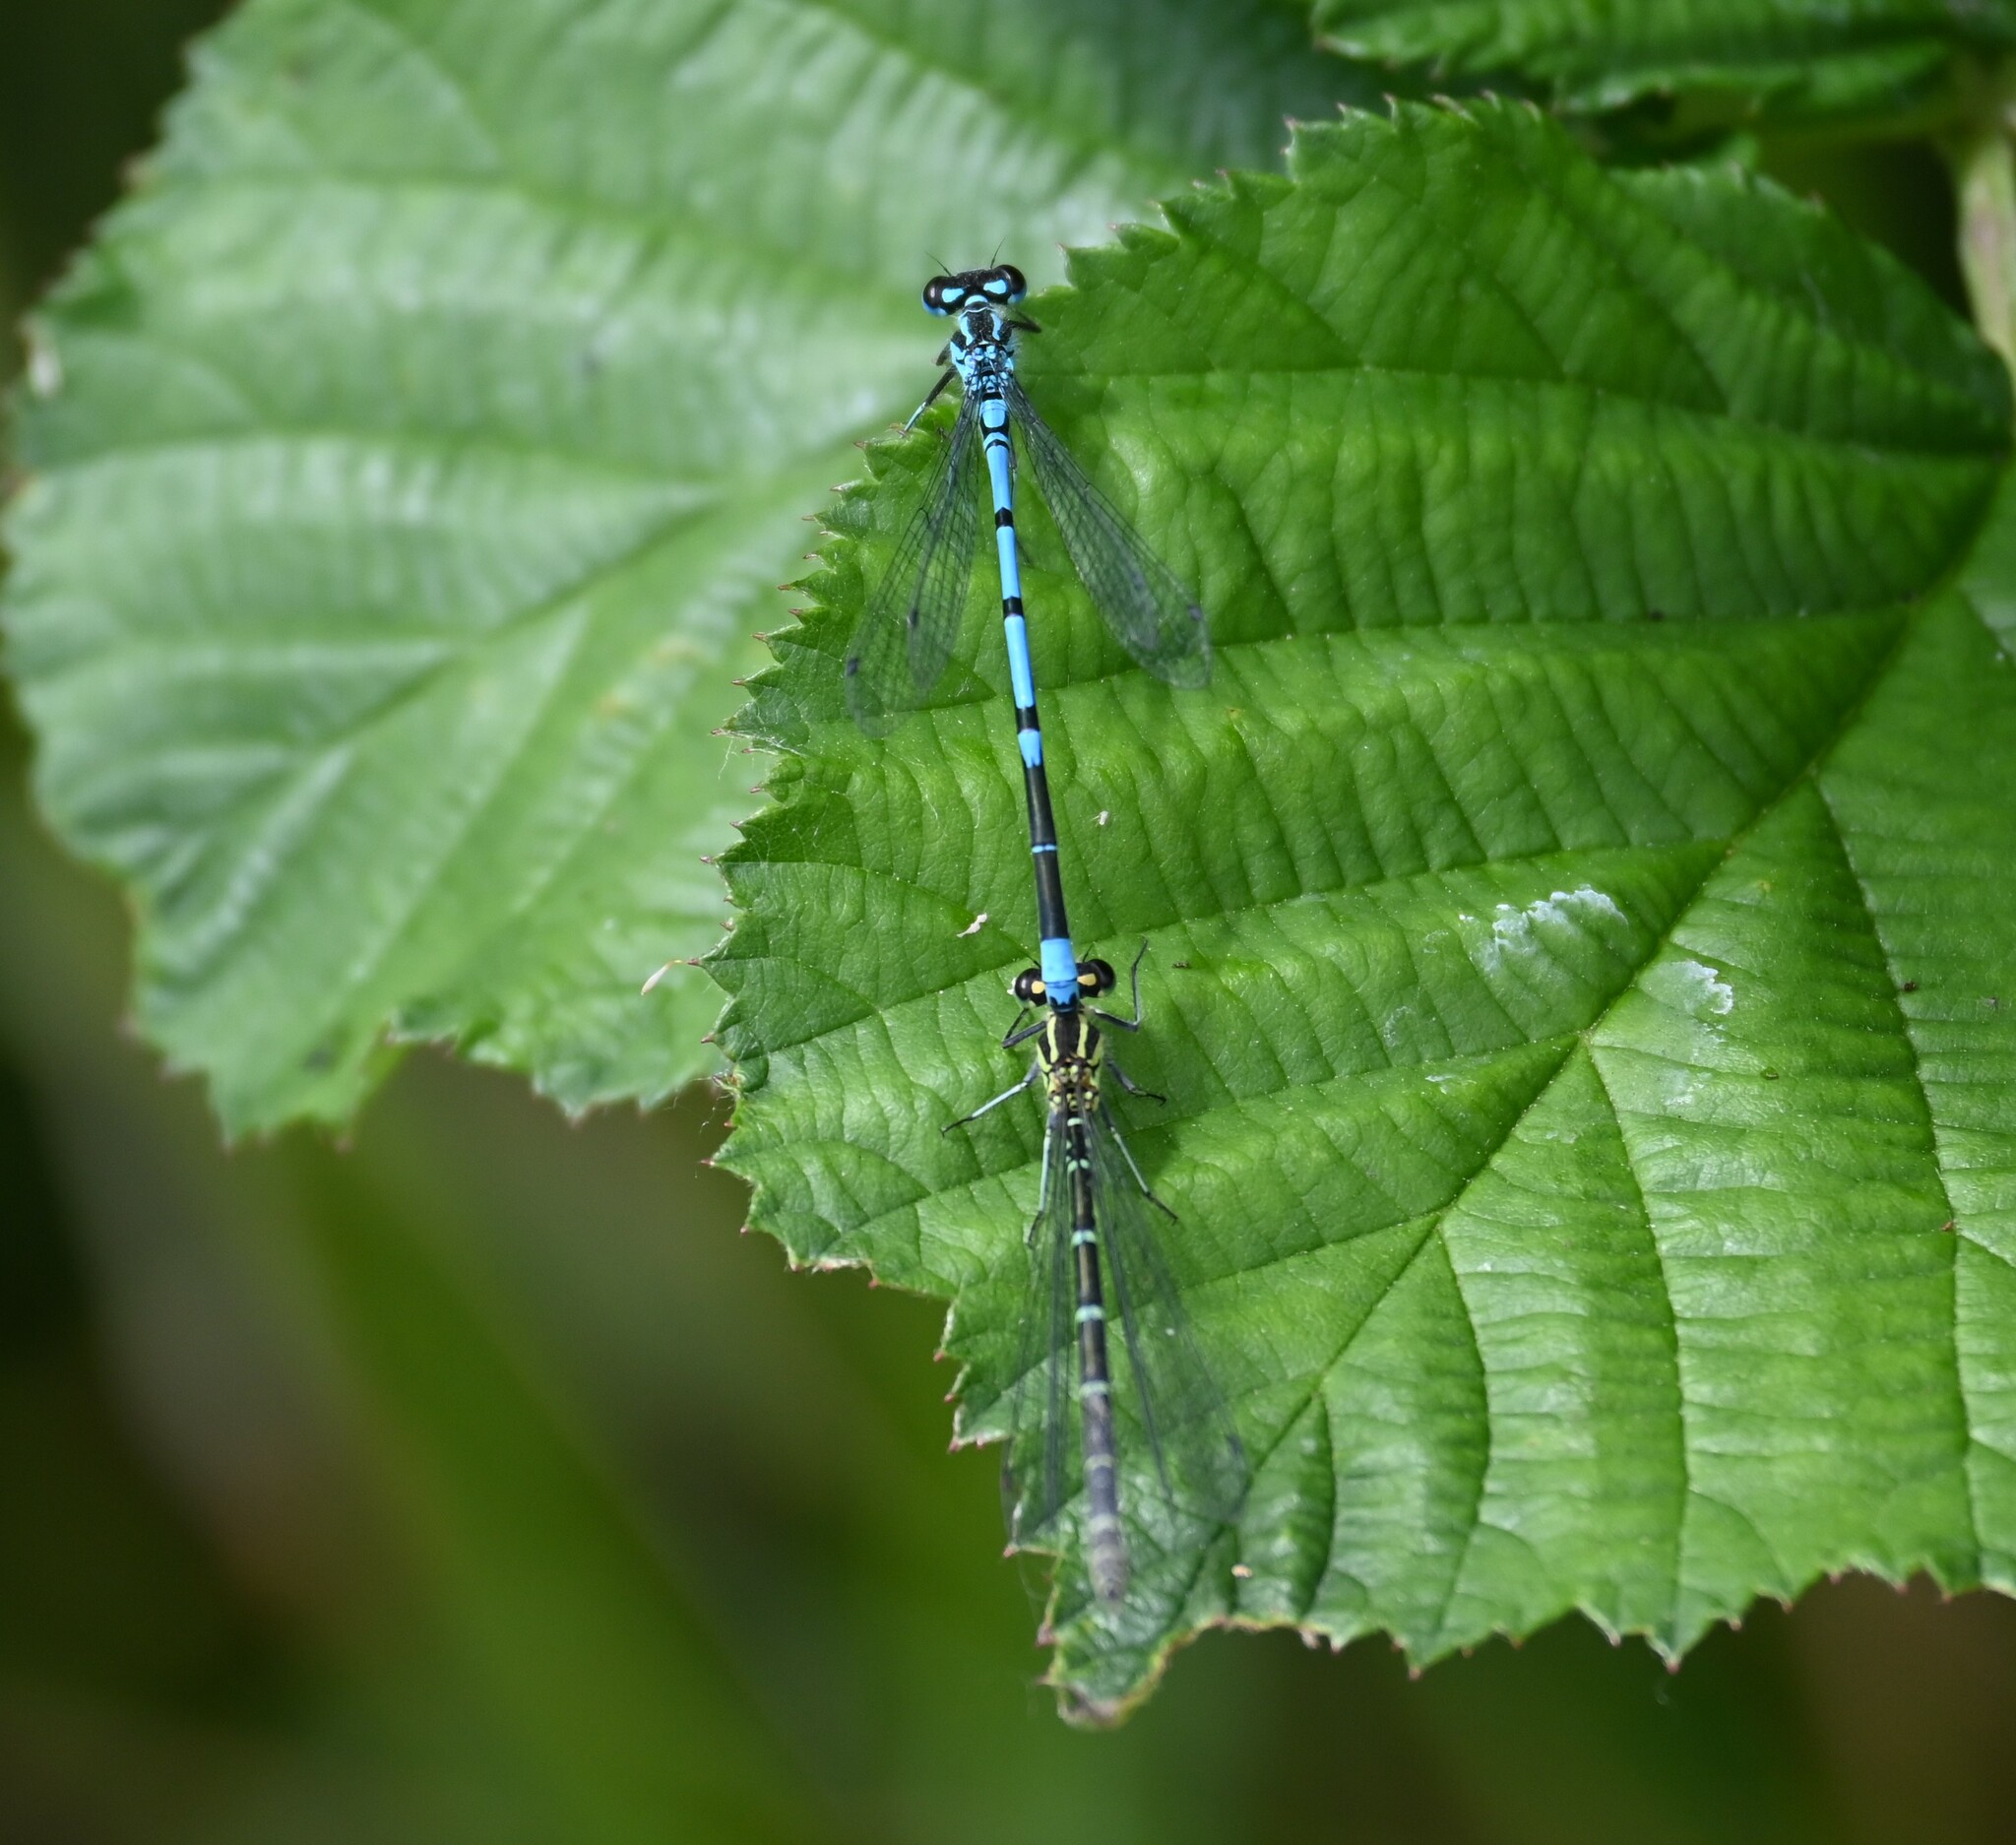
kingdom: Animalia
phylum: Arthropoda
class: Insecta
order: Odonata
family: Coenagrionidae
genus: Coenagrion
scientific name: Coenagrion puella
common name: Azure damselfly
